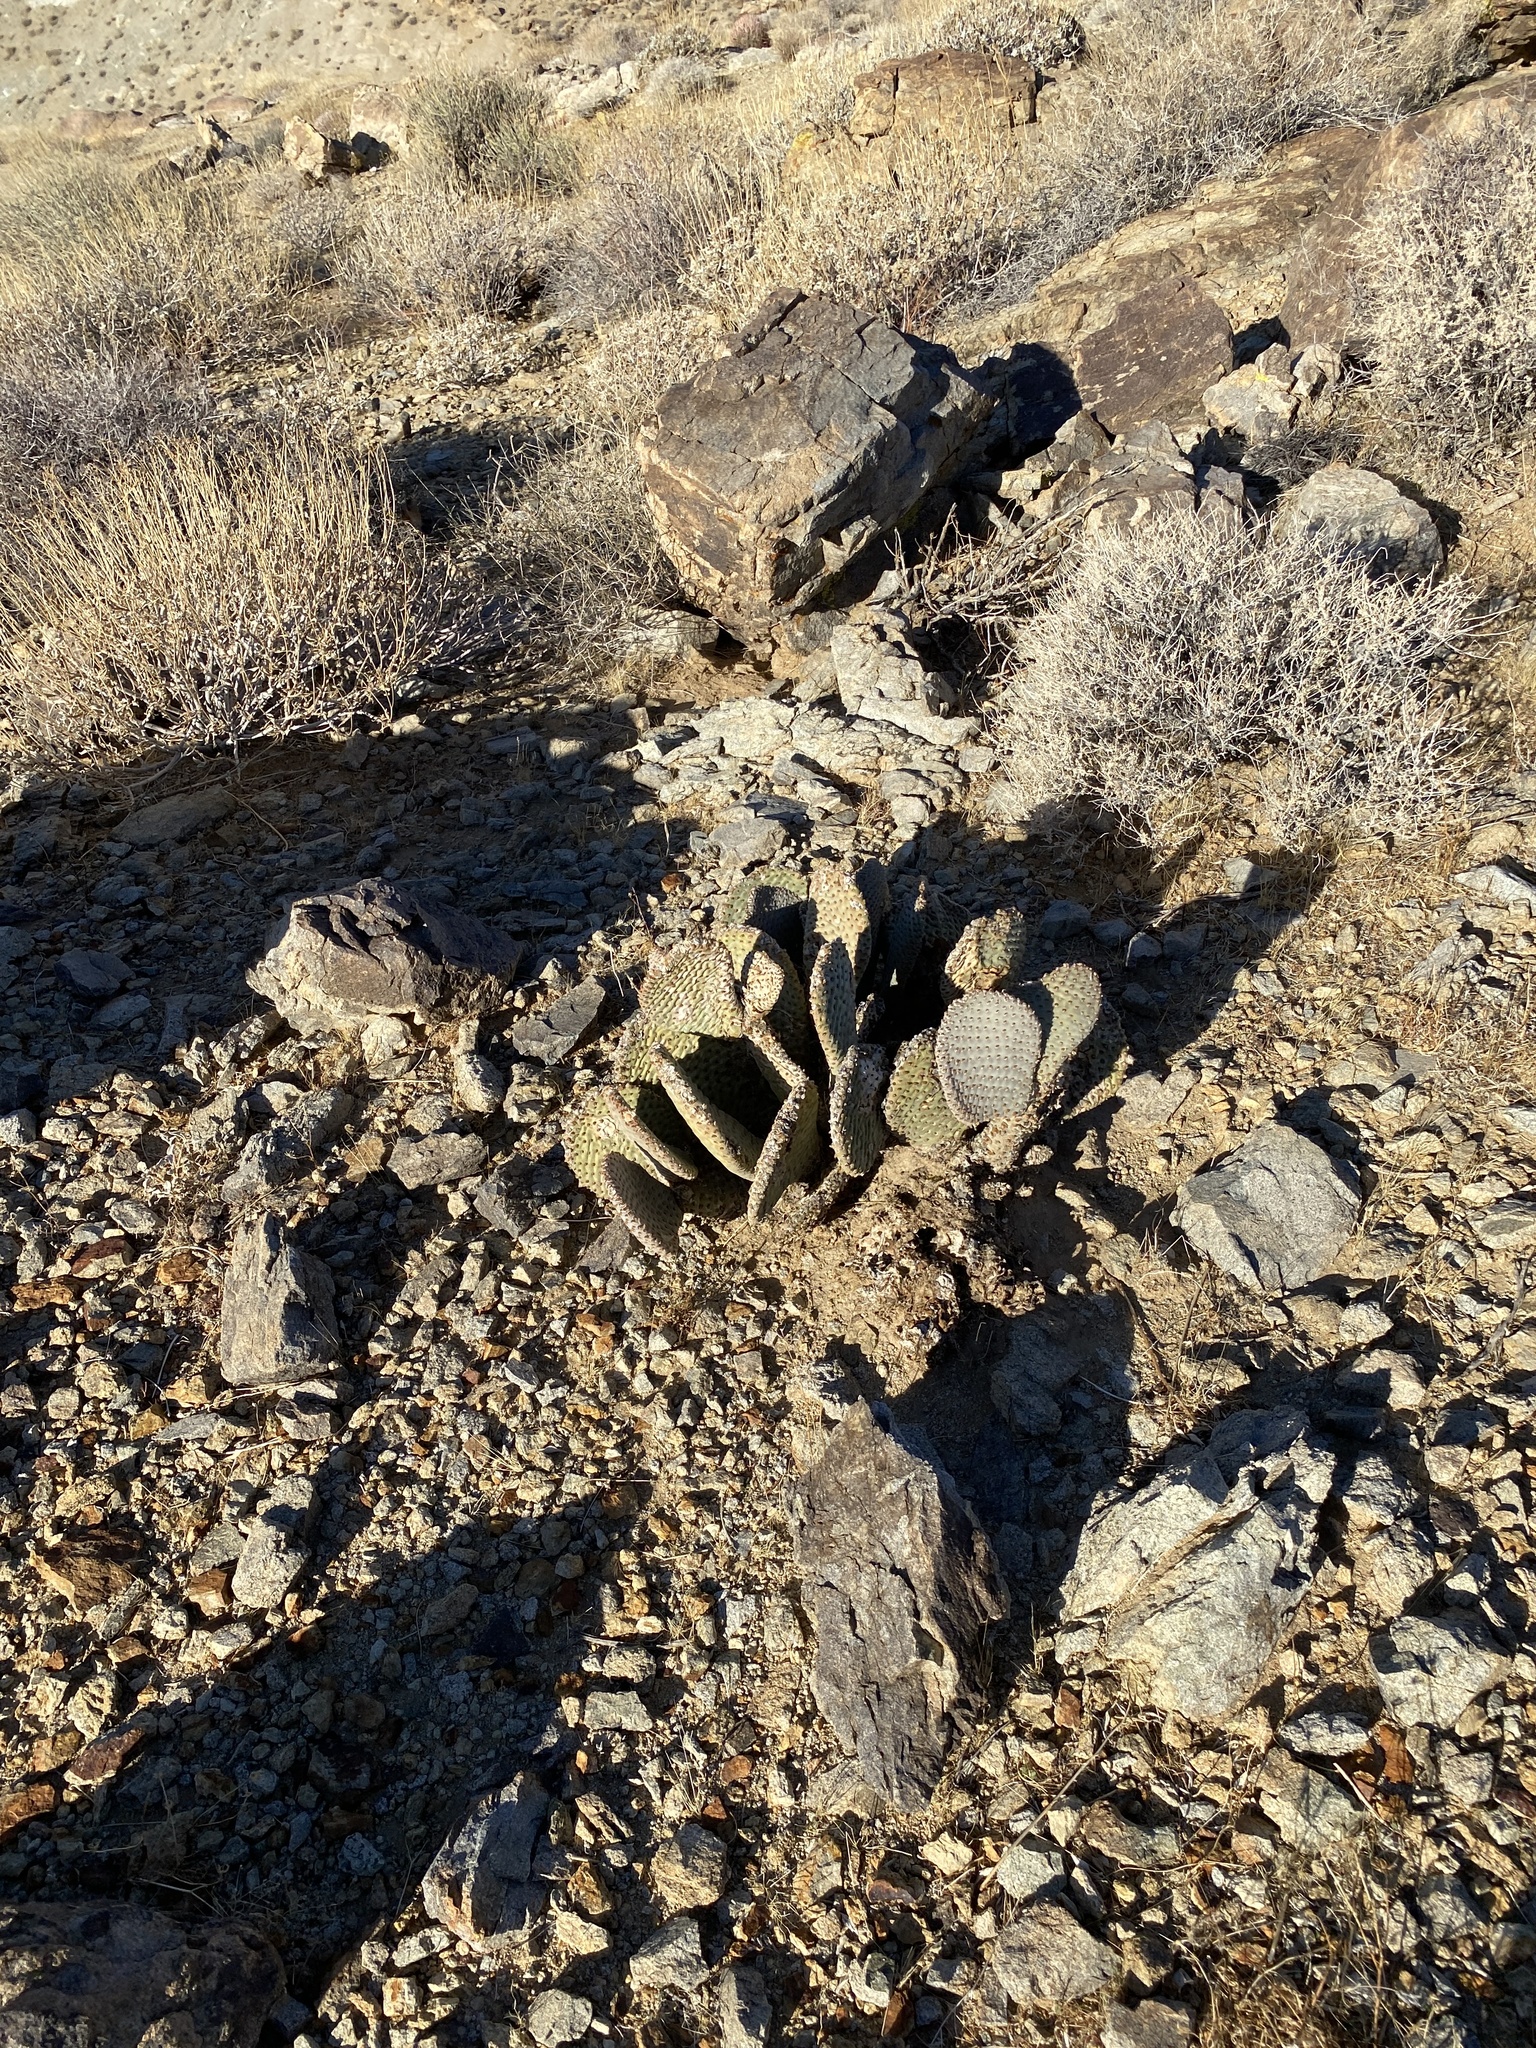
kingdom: Plantae
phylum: Tracheophyta
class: Magnoliopsida
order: Caryophyllales
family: Cactaceae
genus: Opuntia
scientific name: Opuntia basilaris
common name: Beavertail prickly-pear
